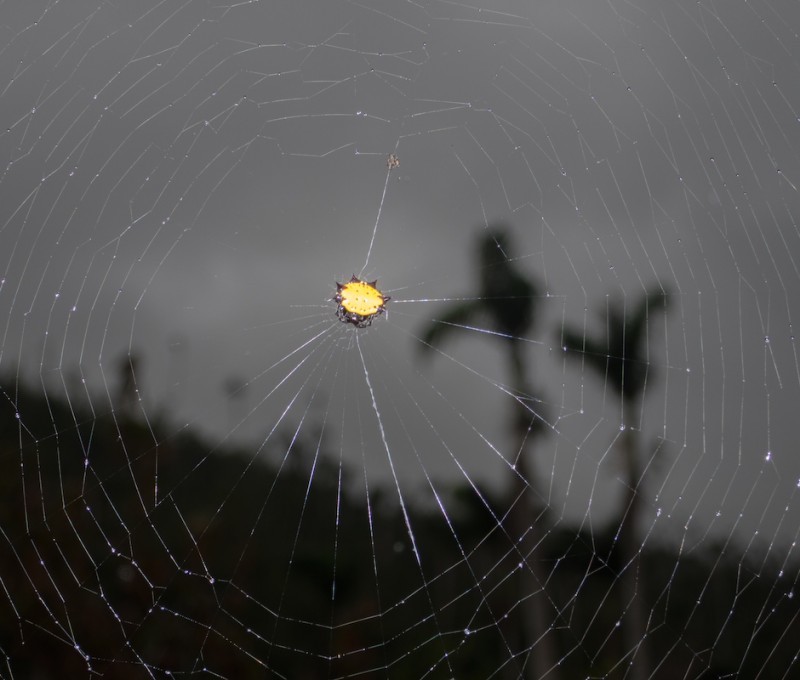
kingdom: Animalia
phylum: Arthropoda
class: Arachnida
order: Araneae
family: Araneidae
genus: Gasteracantha
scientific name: Gasteracantha cancriformis
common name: Orb weavers
